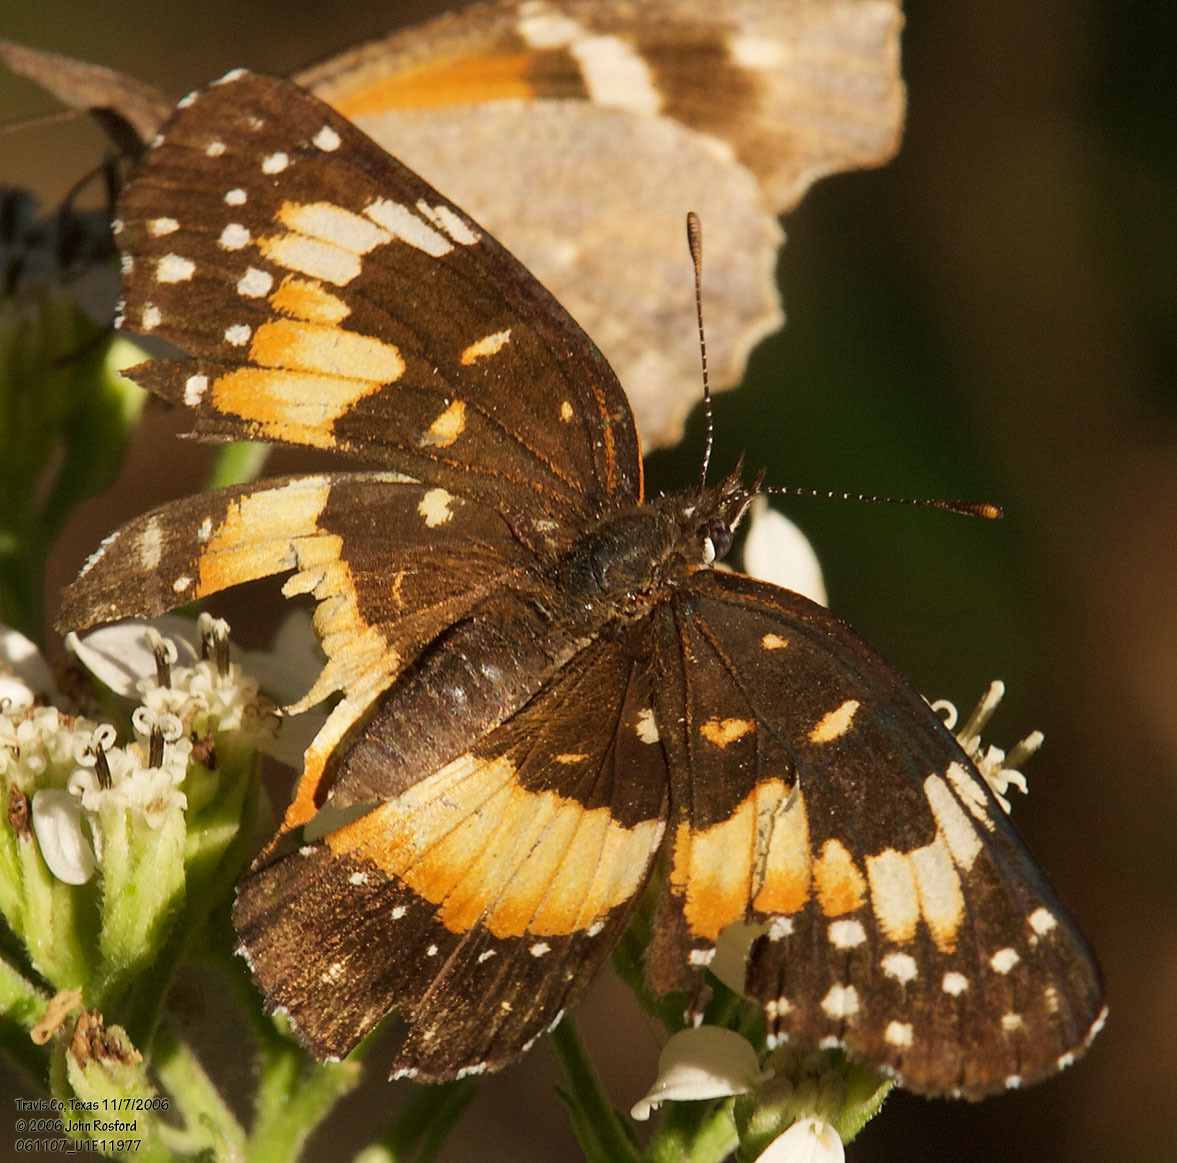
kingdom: Animalia
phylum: Arthropoda
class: Insecta
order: Lepidoptera
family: Nymphalidae
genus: Chlosyne
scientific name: Chlosyne lacinia
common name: Bordered patch
